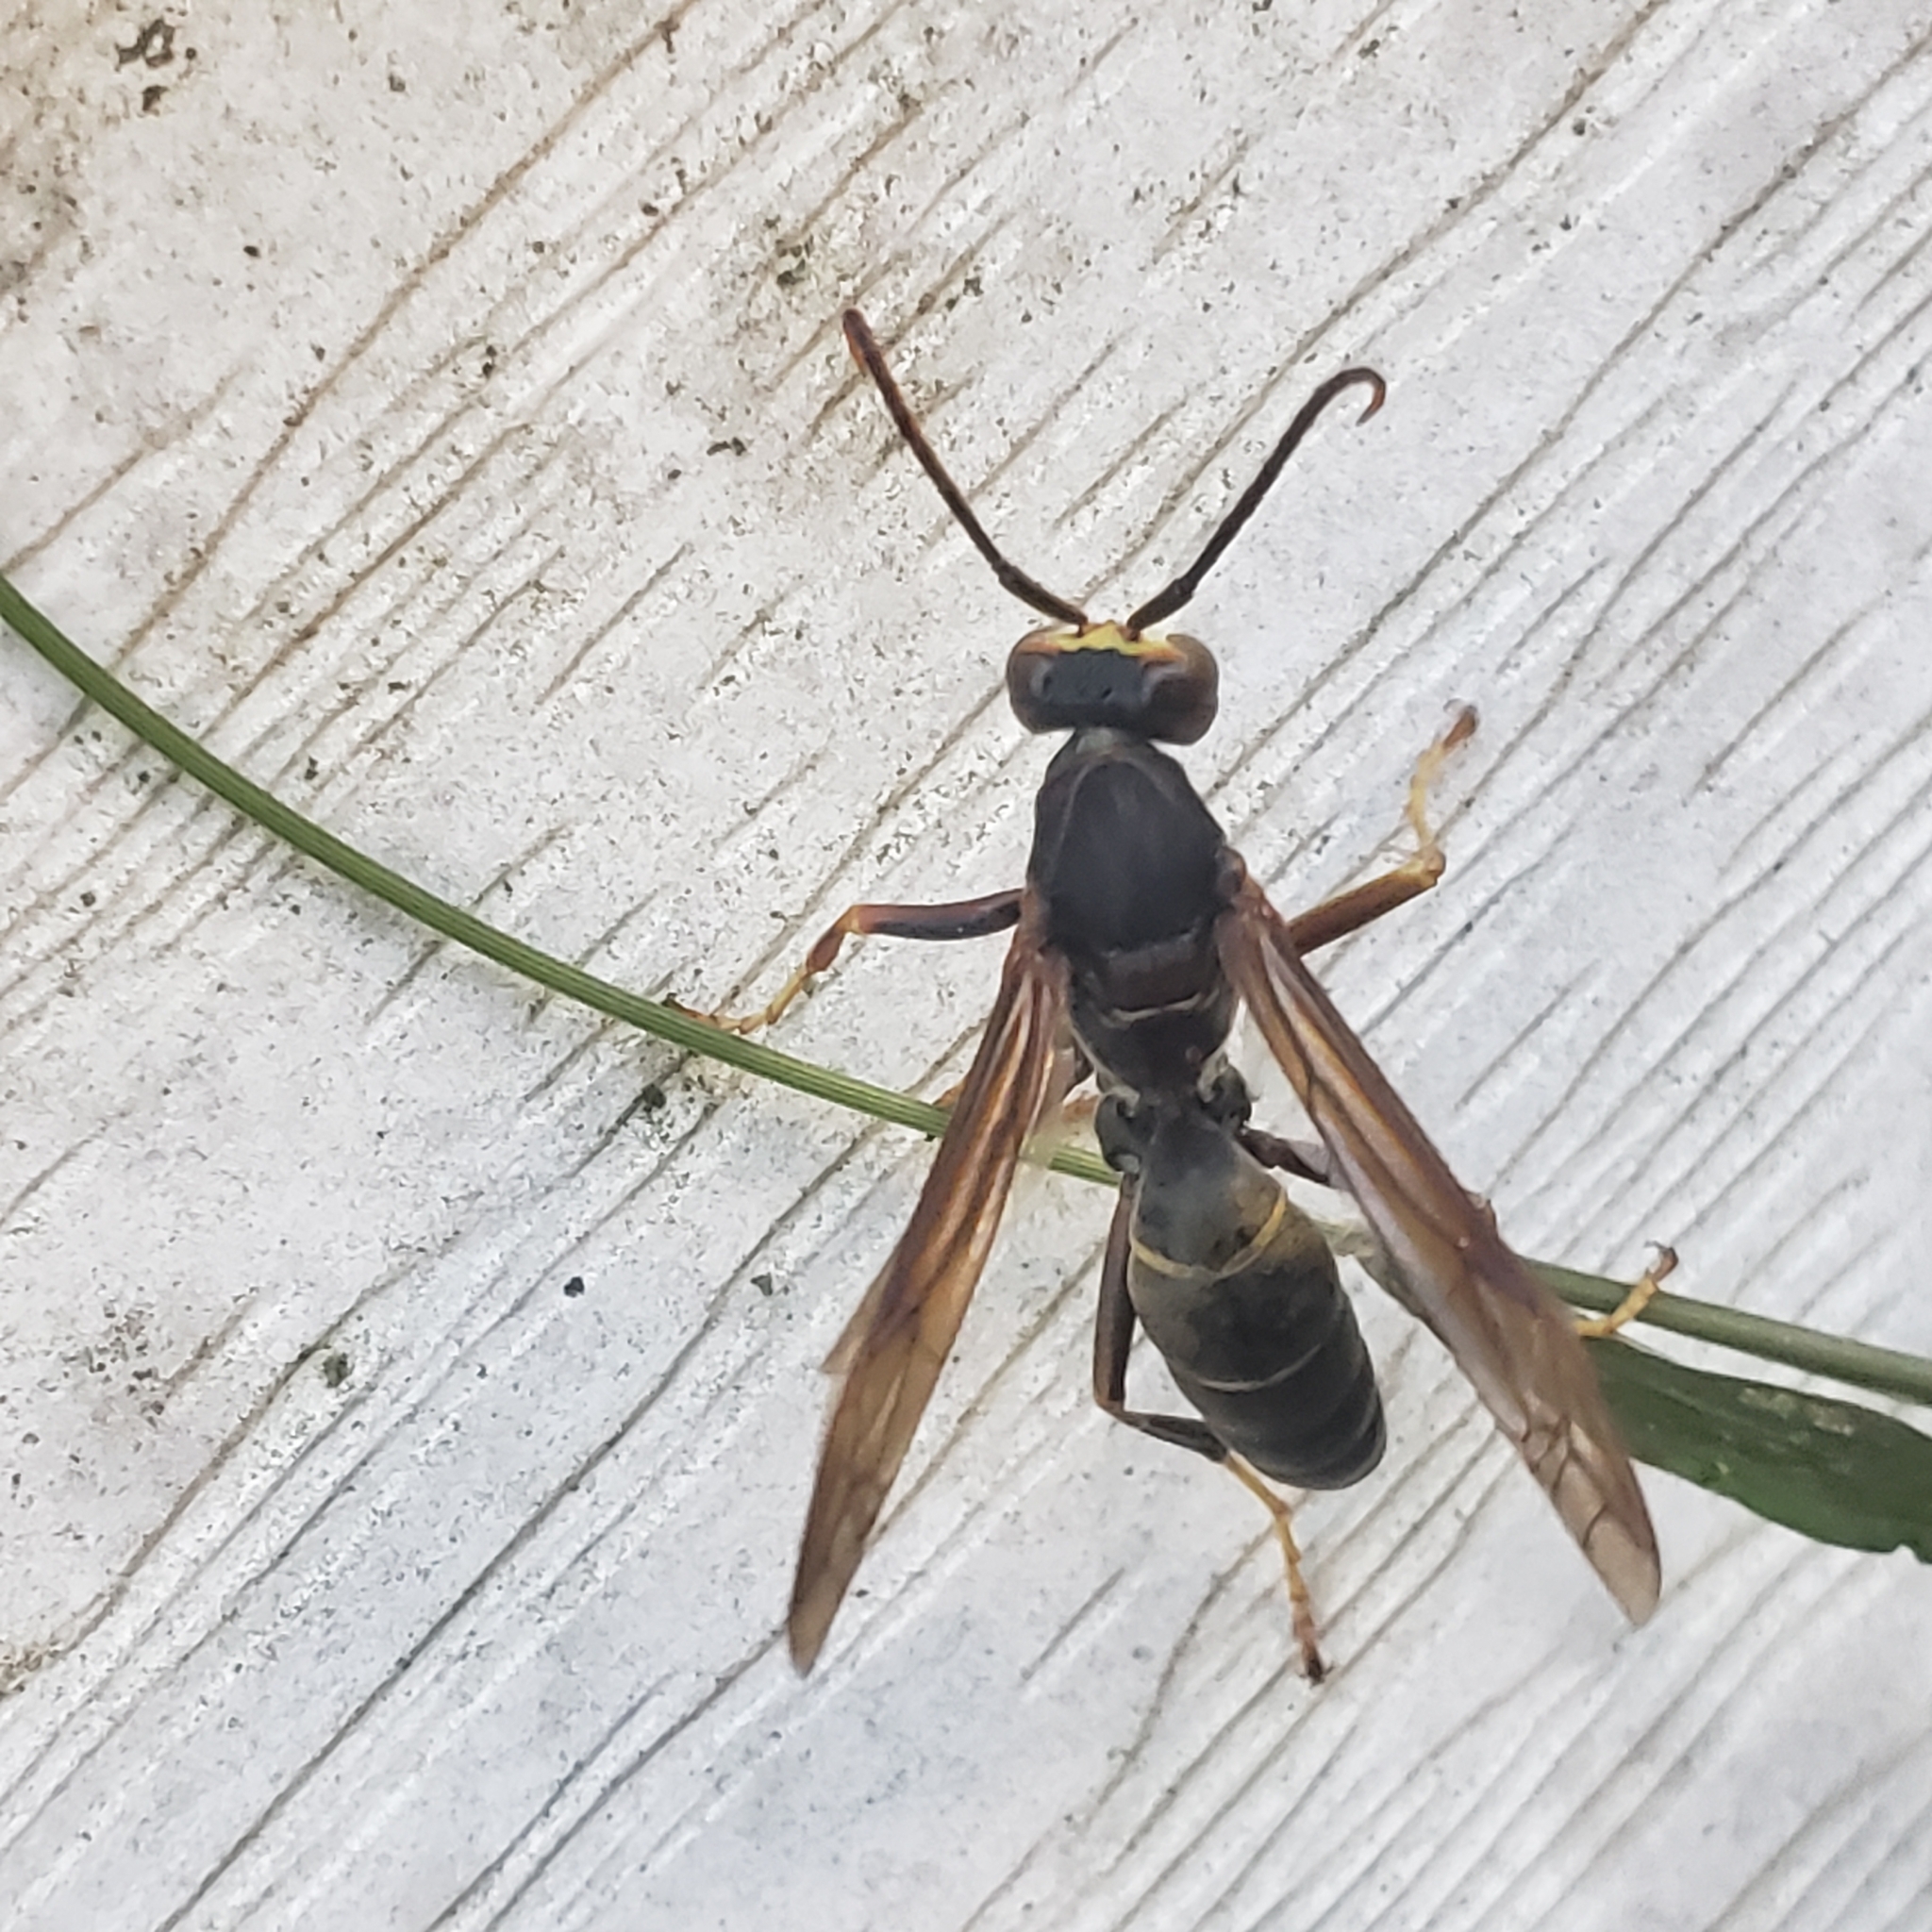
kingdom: Animalia
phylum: Arthropoda
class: Insecta
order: Hymenoptera
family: Eumenidae
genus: Polistes
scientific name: Polistes fuscatus
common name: Dark paper wasp
